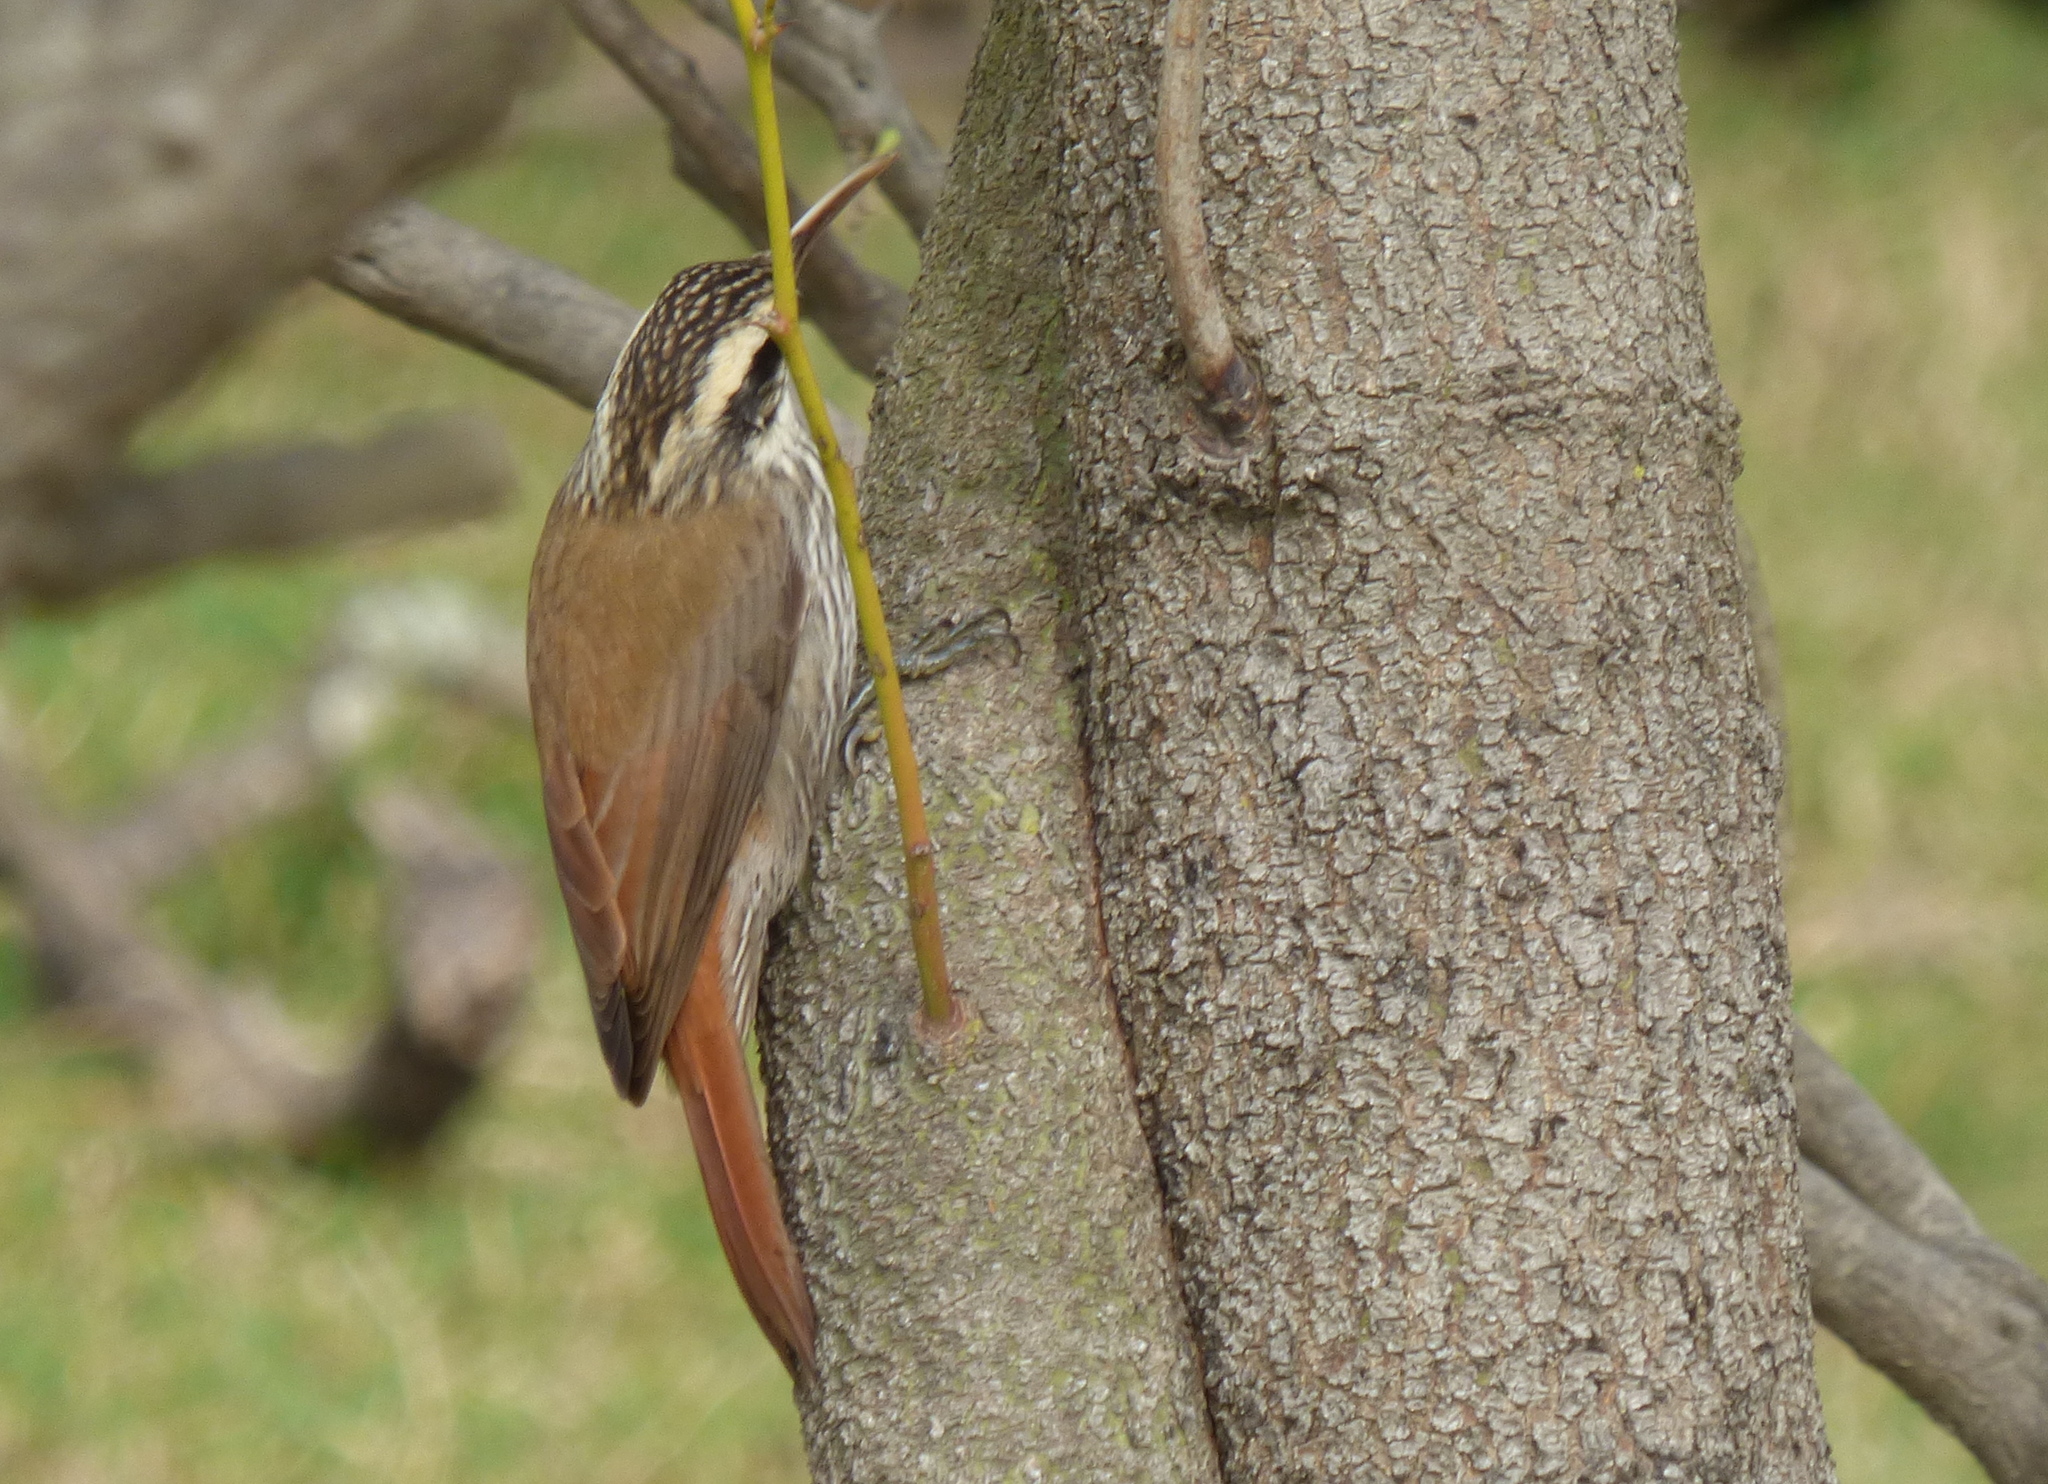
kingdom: Animalia
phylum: Chordata
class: Aves
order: Passeriformes
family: Furnariidae
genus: Lepidocolaptes
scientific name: Lepidocolaptes angustirostris
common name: Narrow-billed woodcreeper
